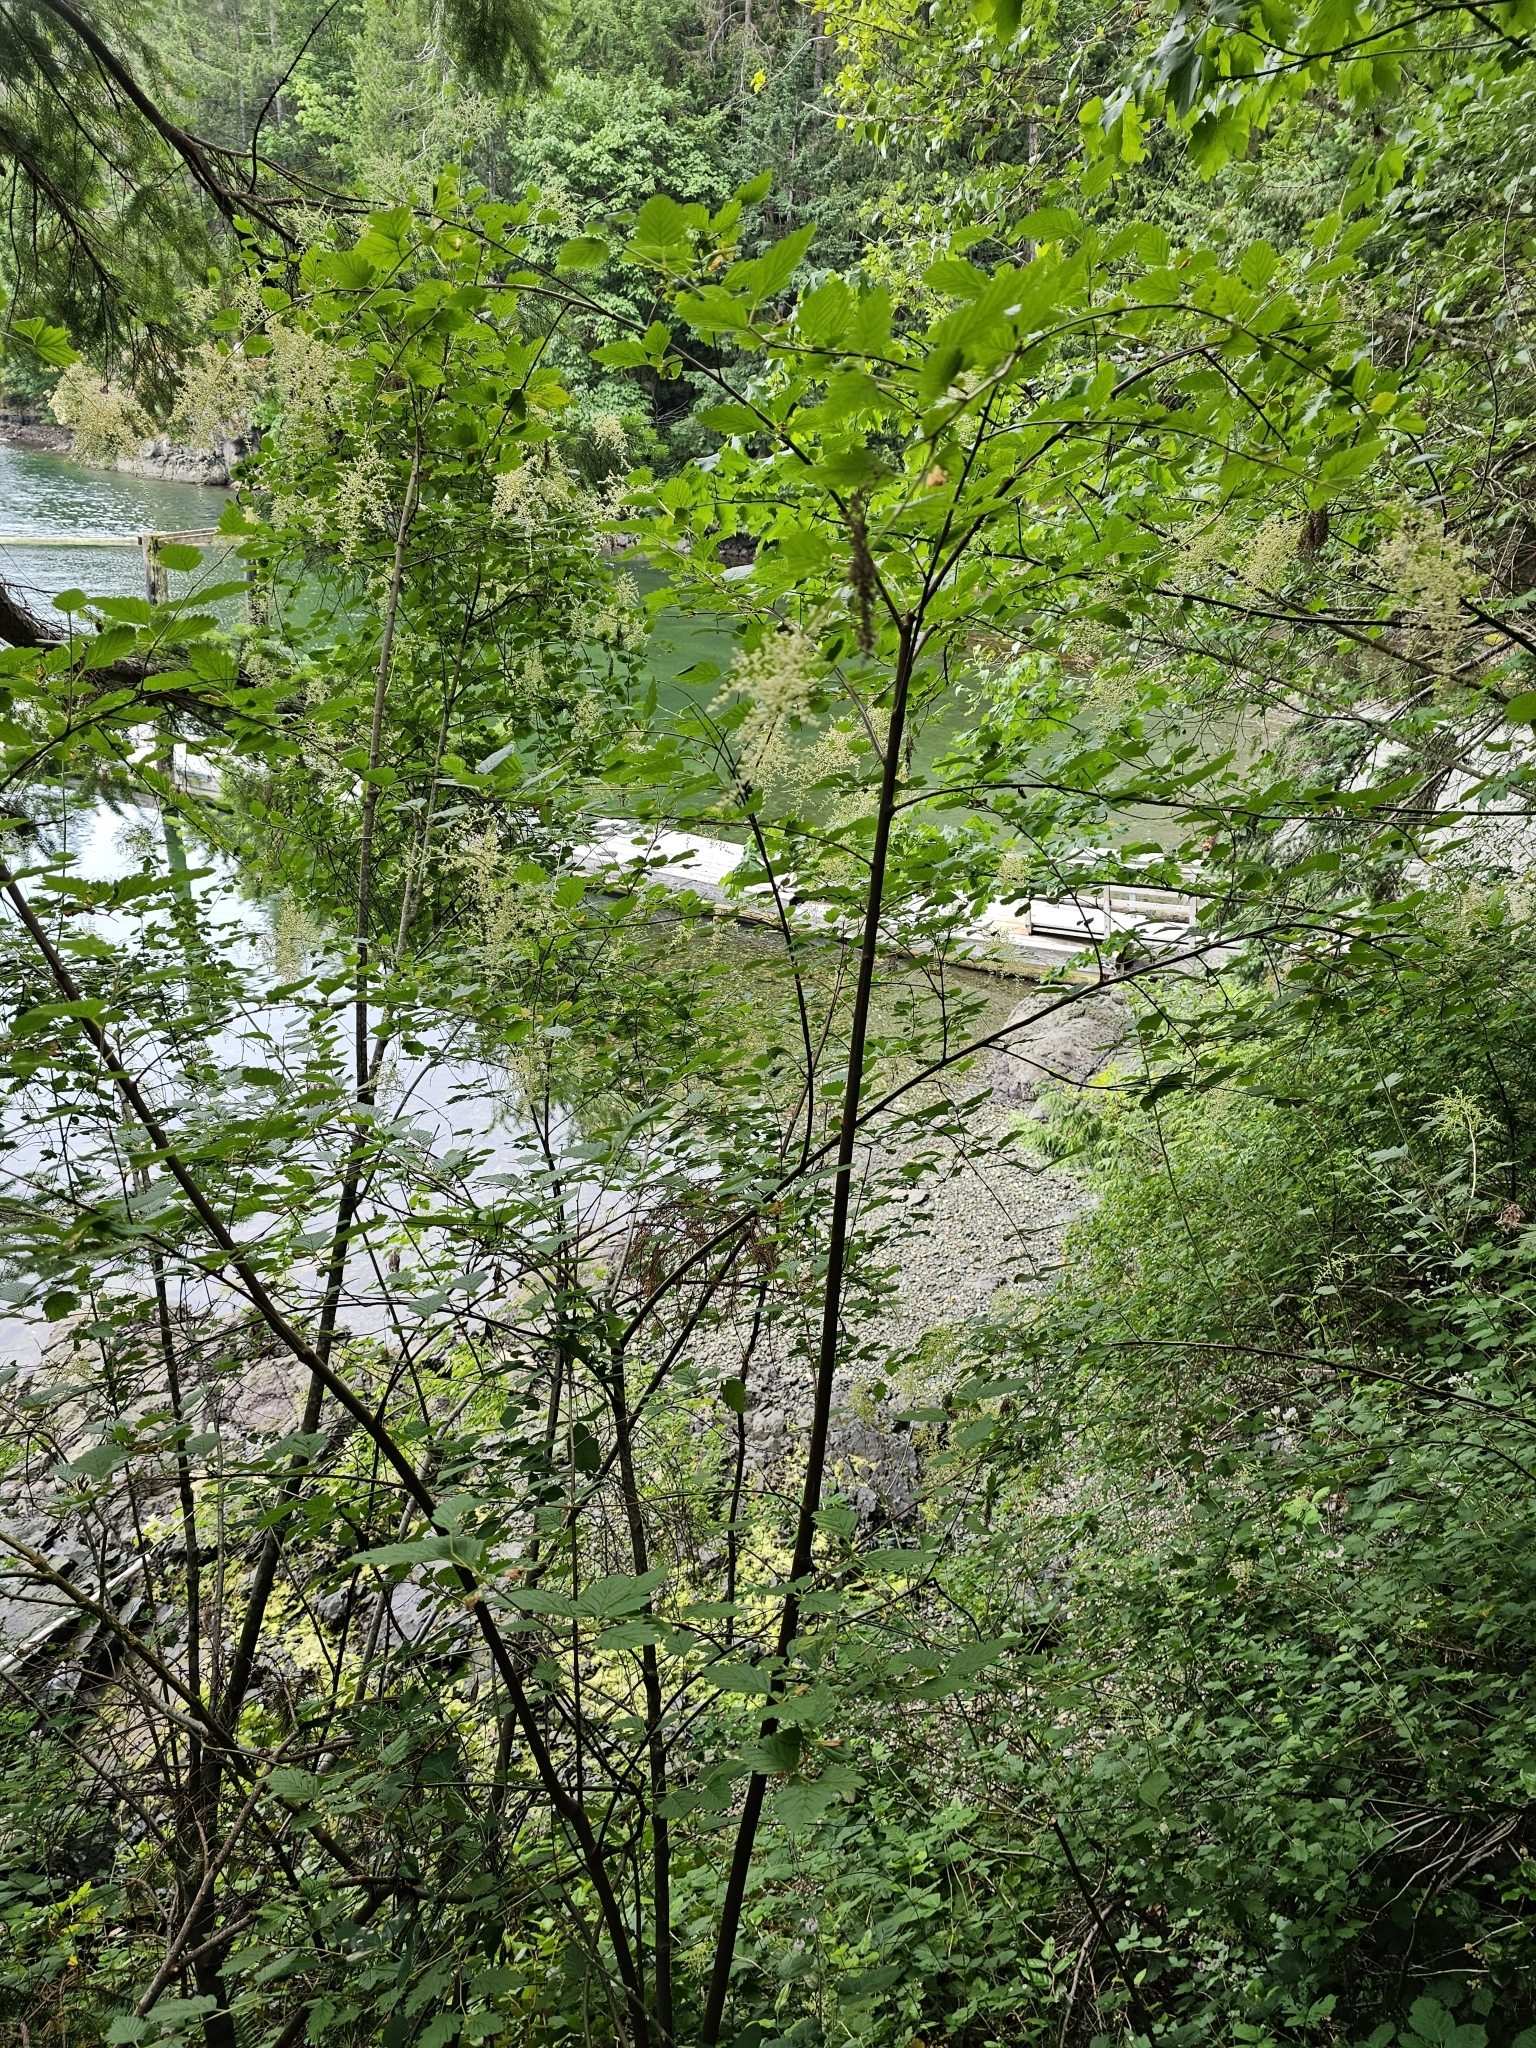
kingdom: Plantae
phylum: Tracheophyta
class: Magnoliopsida
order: Rosales
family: Rosaceae
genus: Holodiscus
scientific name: Holodiscus discolor
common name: Oceanspray
